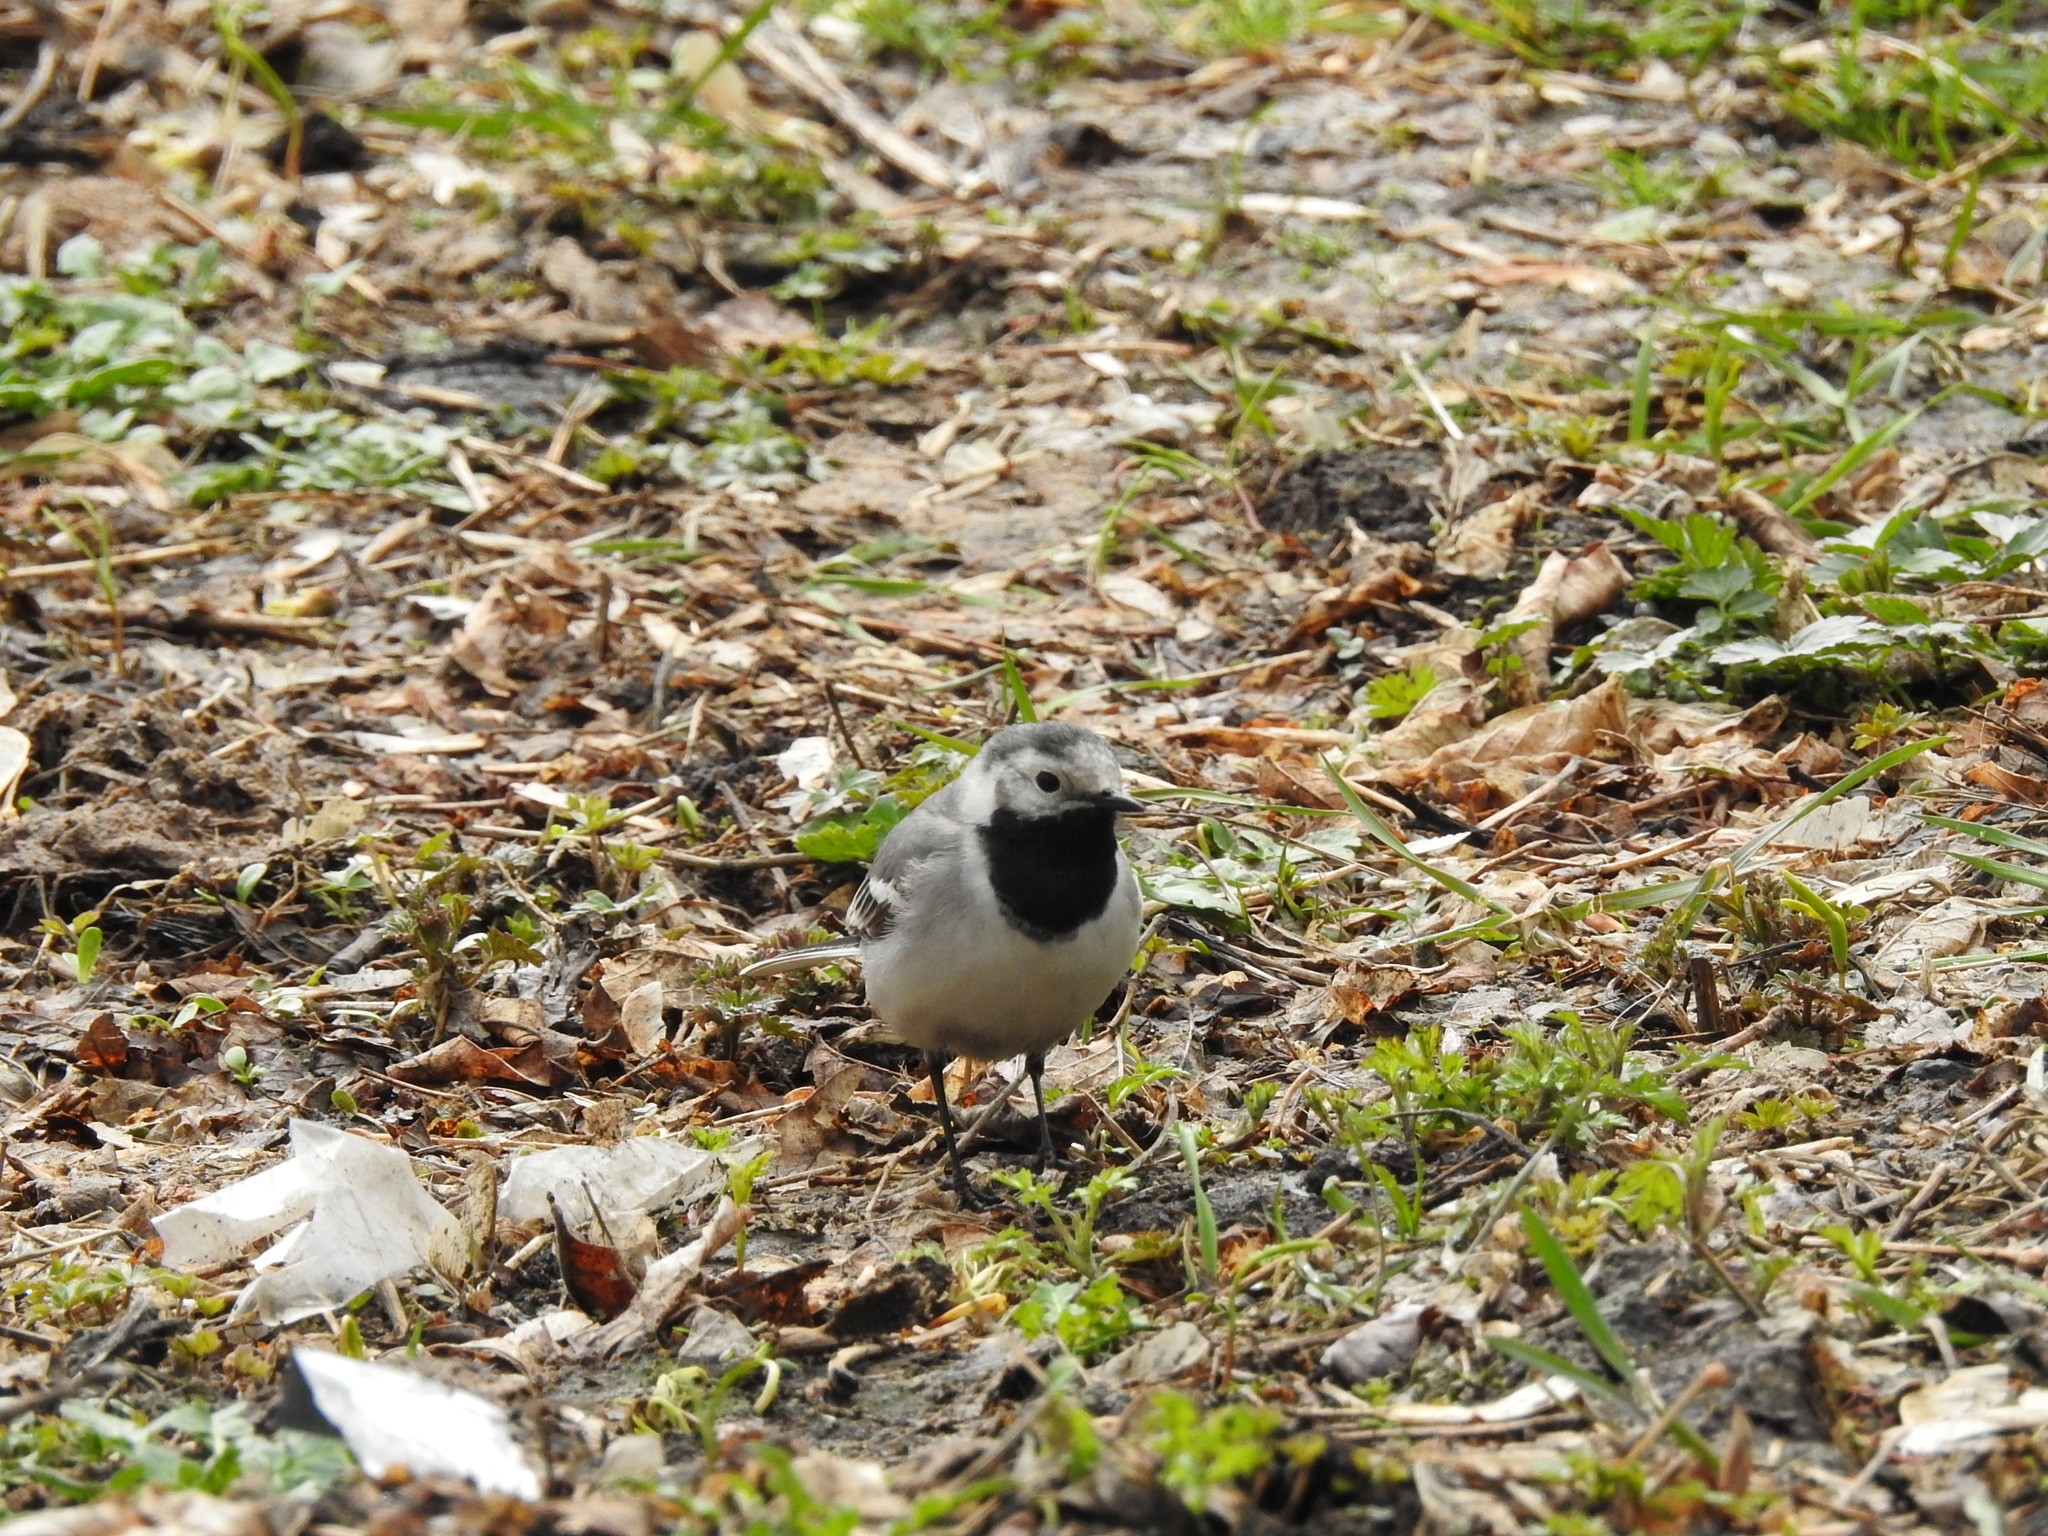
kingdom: Animalia
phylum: Chordata
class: Aves
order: Passeriformes
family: Motacillidae
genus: Motacilla
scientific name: Motacilla alba
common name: White wagtail
